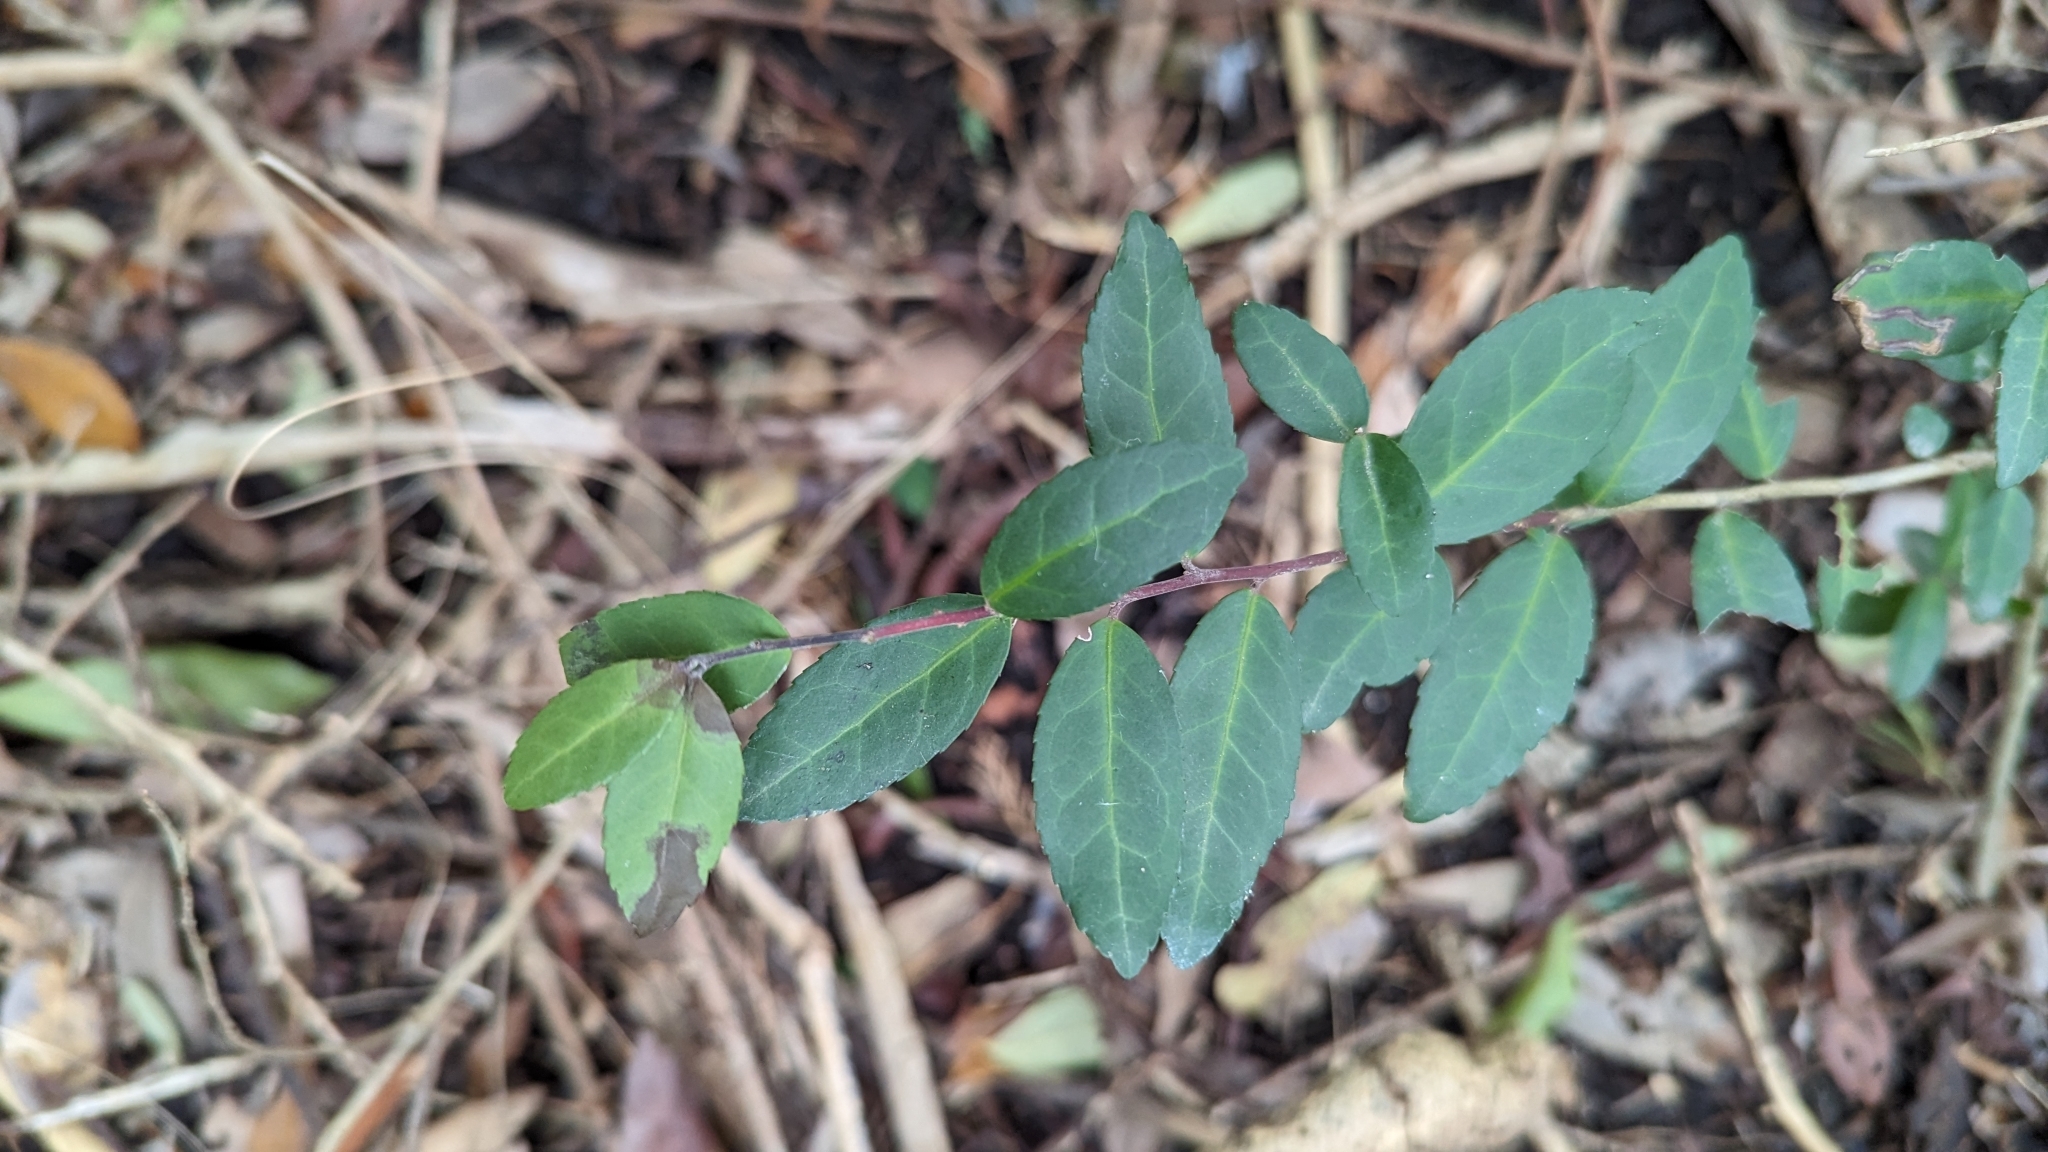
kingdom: Plantae
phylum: Tracheophyta
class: Magnoliopsida
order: Aquifoliales
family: Aquifoliaceae
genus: Ilex
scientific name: Ilex vomitoria
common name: Yaupon holly
